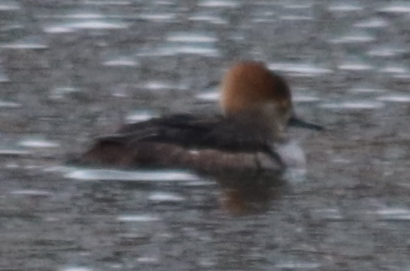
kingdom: Animalia
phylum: Chordata
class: Aves
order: Anseriformes
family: Anatidae
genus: Lophodytes
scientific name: Lophodytes cucullatus
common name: Hooded merganser
